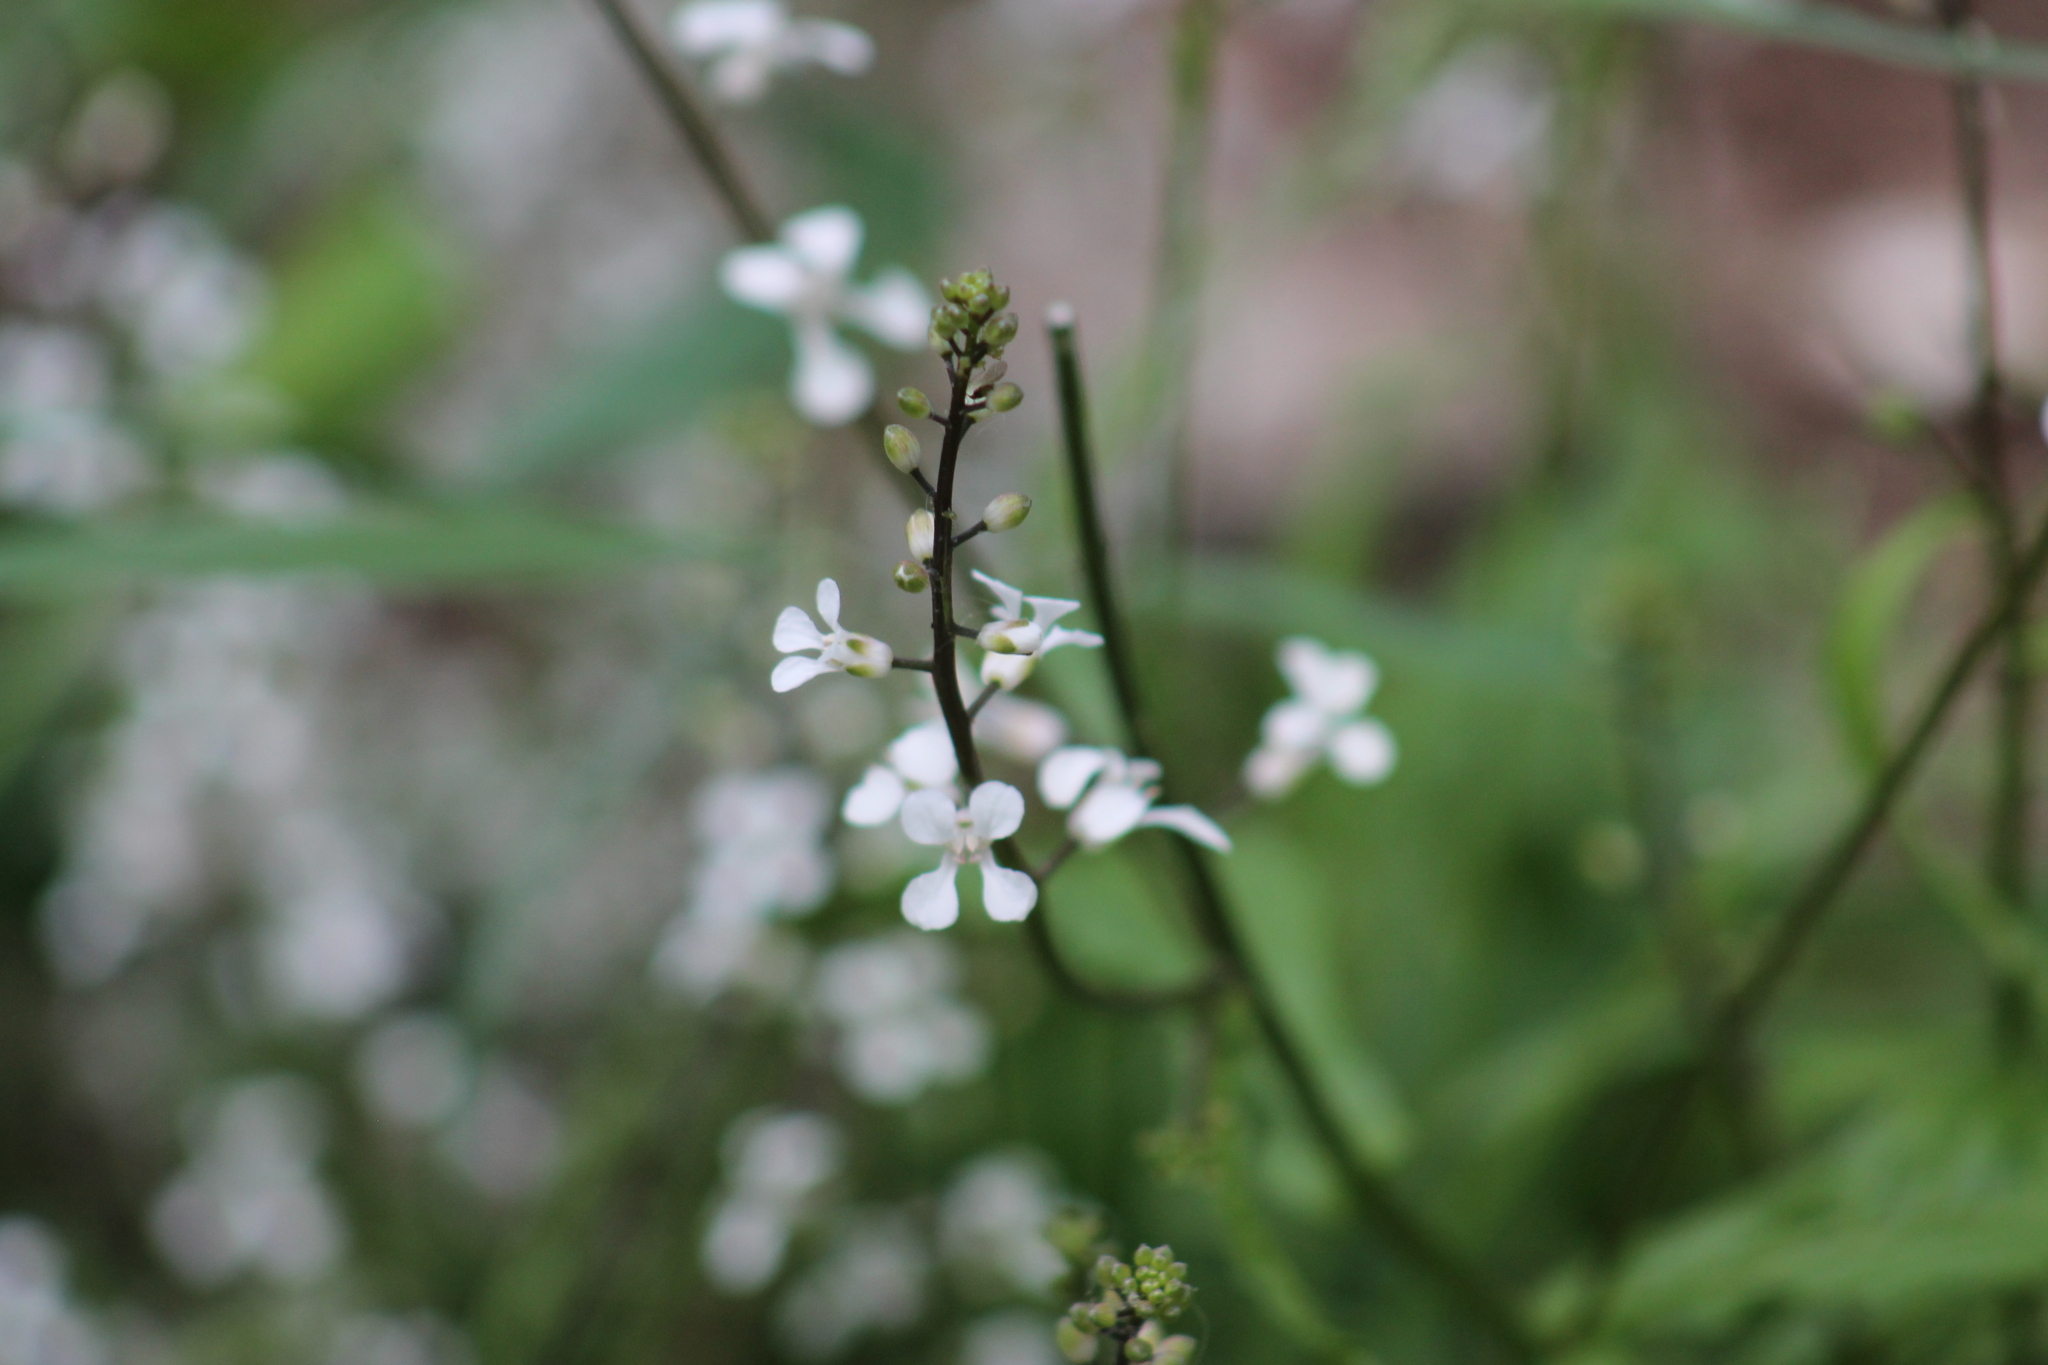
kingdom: Plantae
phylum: Tracheophyta
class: Magnoliopsida
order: Brassicales
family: Brassicaceae
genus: Iodanthus
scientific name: Iodanthus pinnatifidus
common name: Violet rocket
